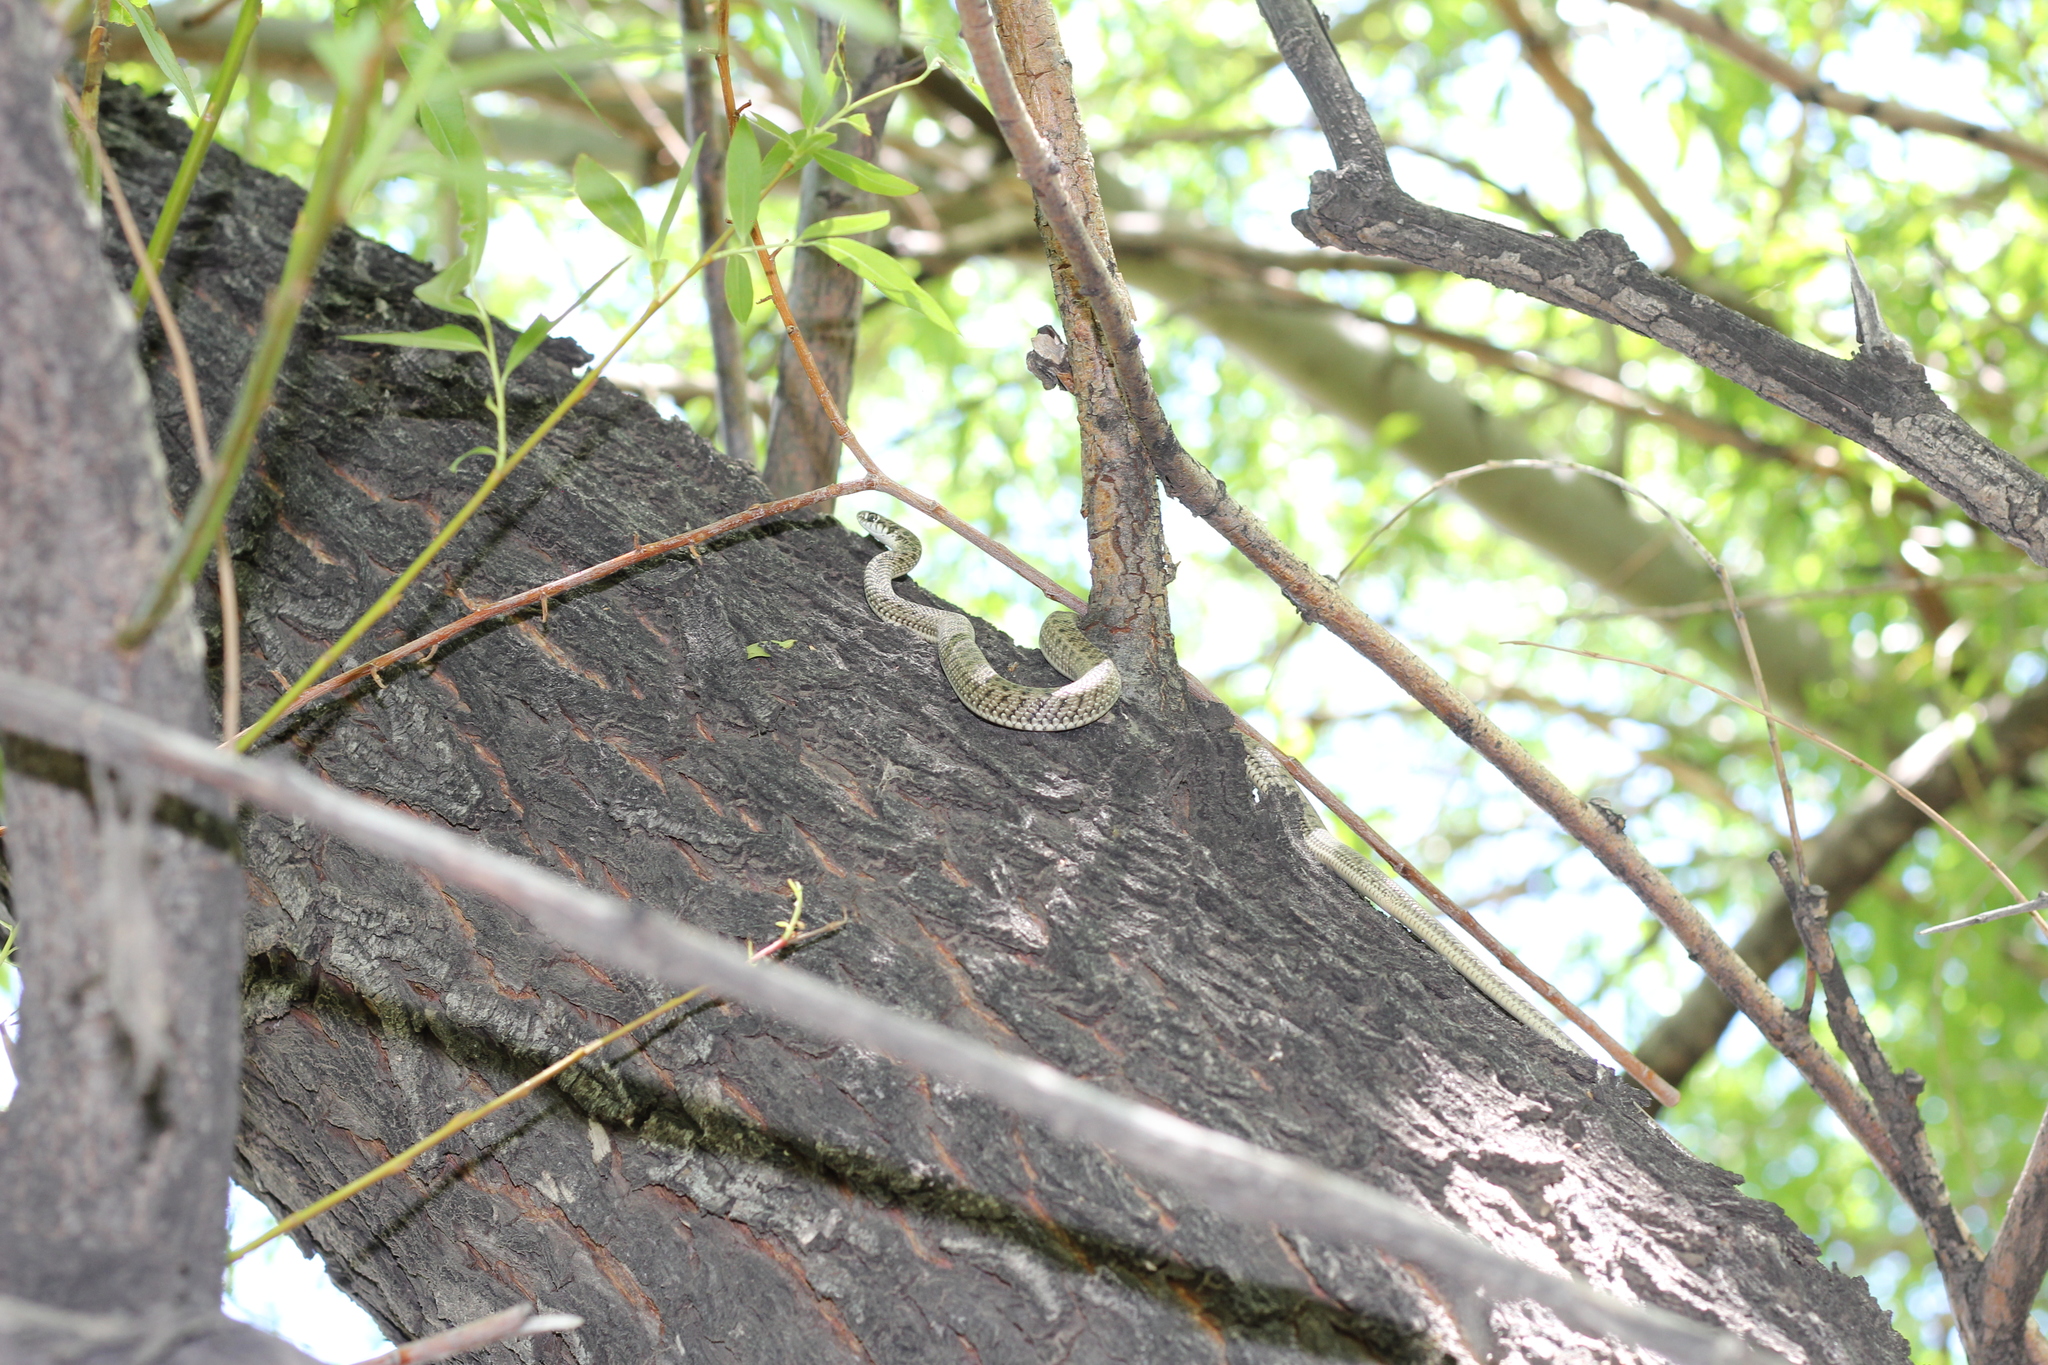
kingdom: Animalia
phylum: Chordata
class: Squamata
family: Colubridae
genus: Philodryas
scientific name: Philodryas patagoniensis
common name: Patagonia green racer
